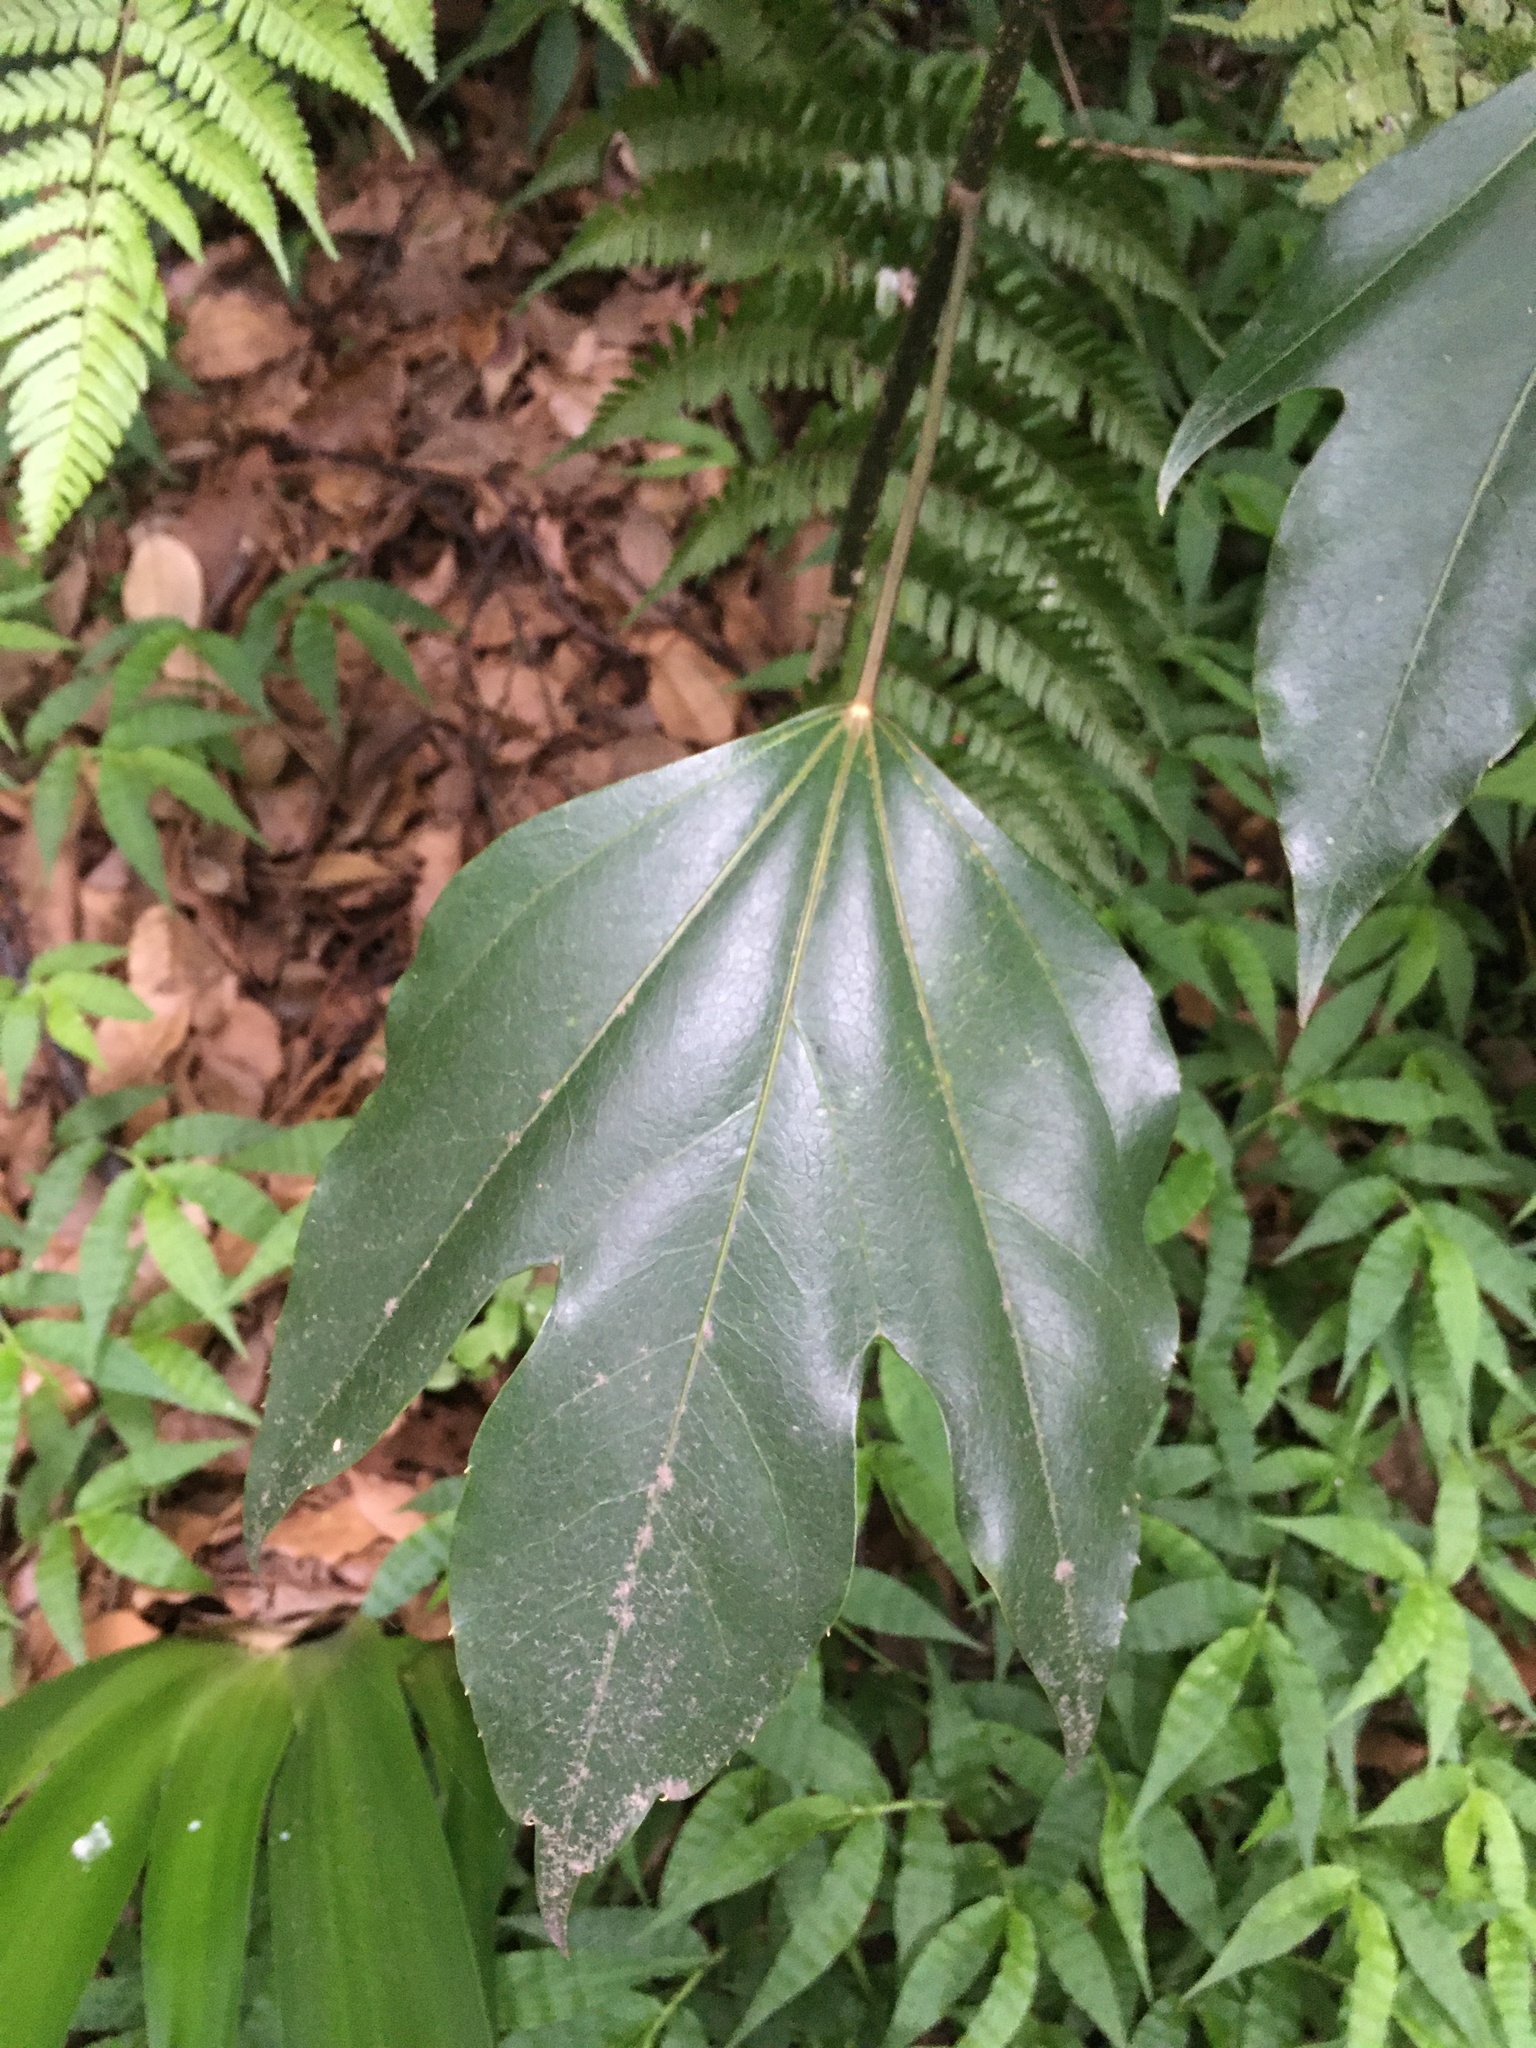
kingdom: Plantae
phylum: Tracheophyta
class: Magnoliopsida
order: Apiales
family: Araliaceae
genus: Dendropanax
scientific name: Dendropanax trifidus
